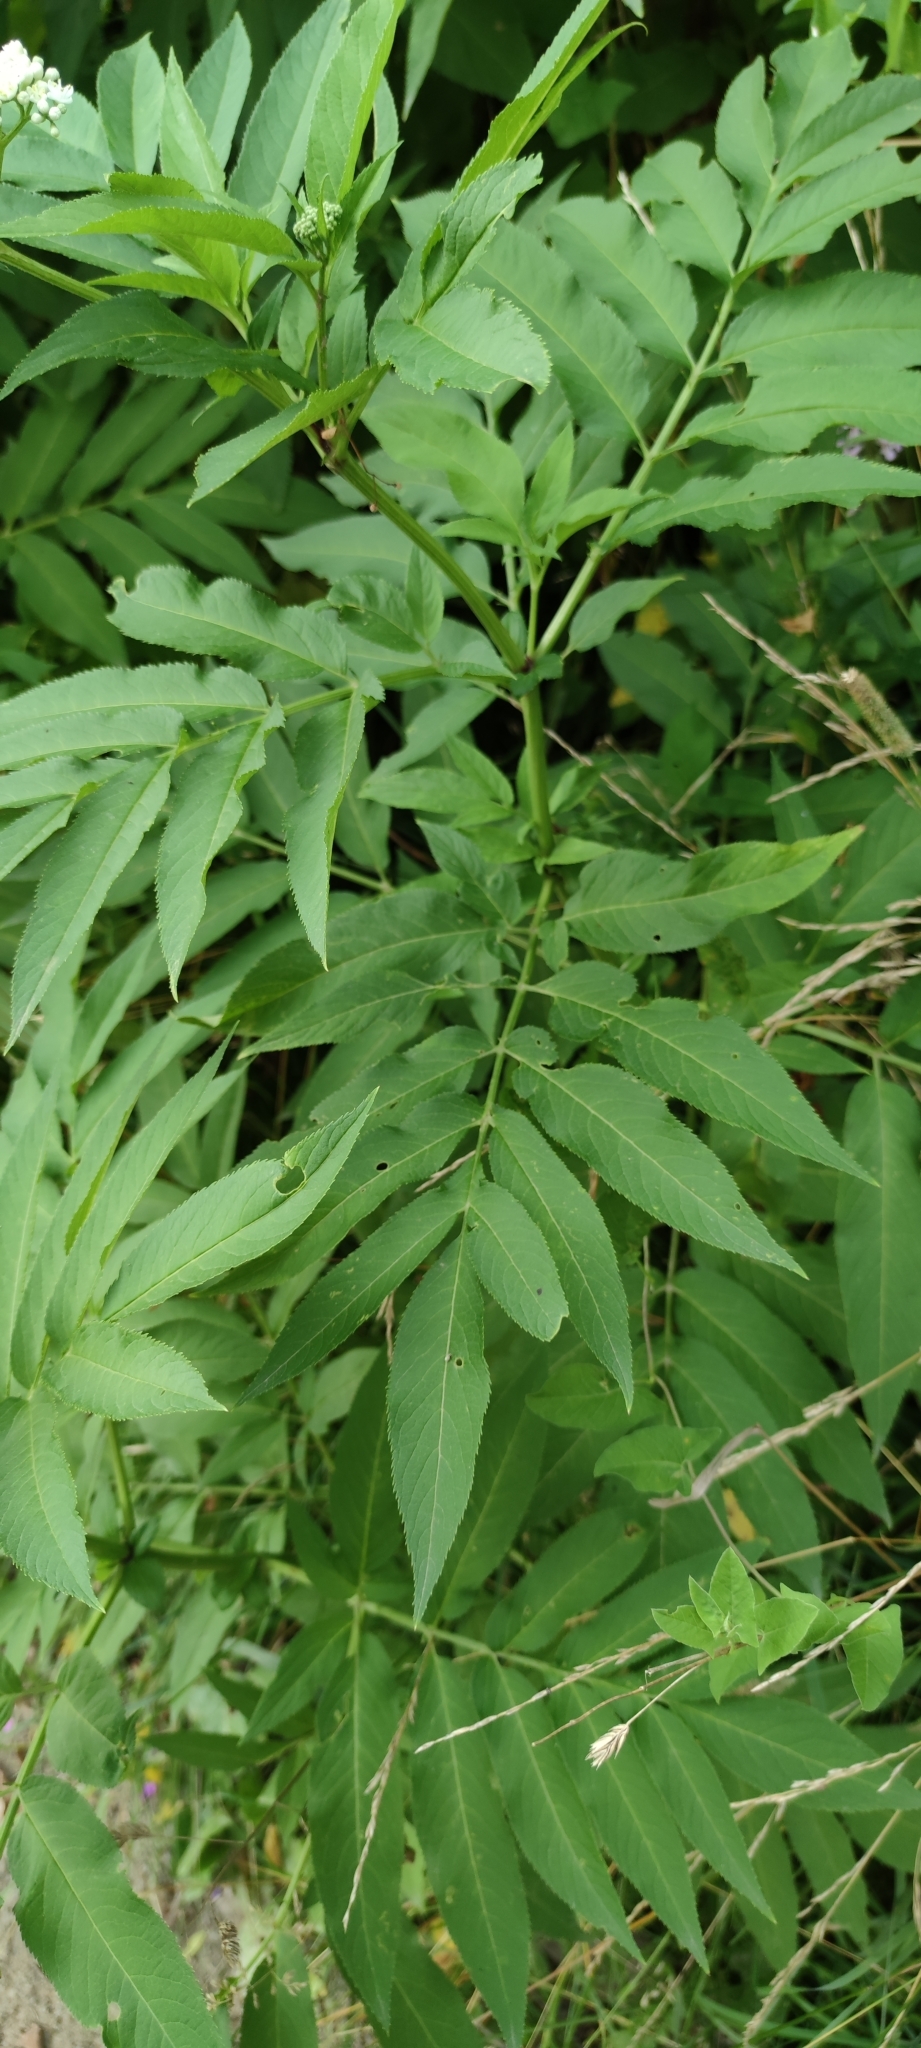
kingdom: Plantae
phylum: Tracheophyta
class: Magnoliopsida
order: Dipsacales
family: Viburnaceae
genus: Sambucus
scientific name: Sambucus ebulus
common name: Dwarf elder
